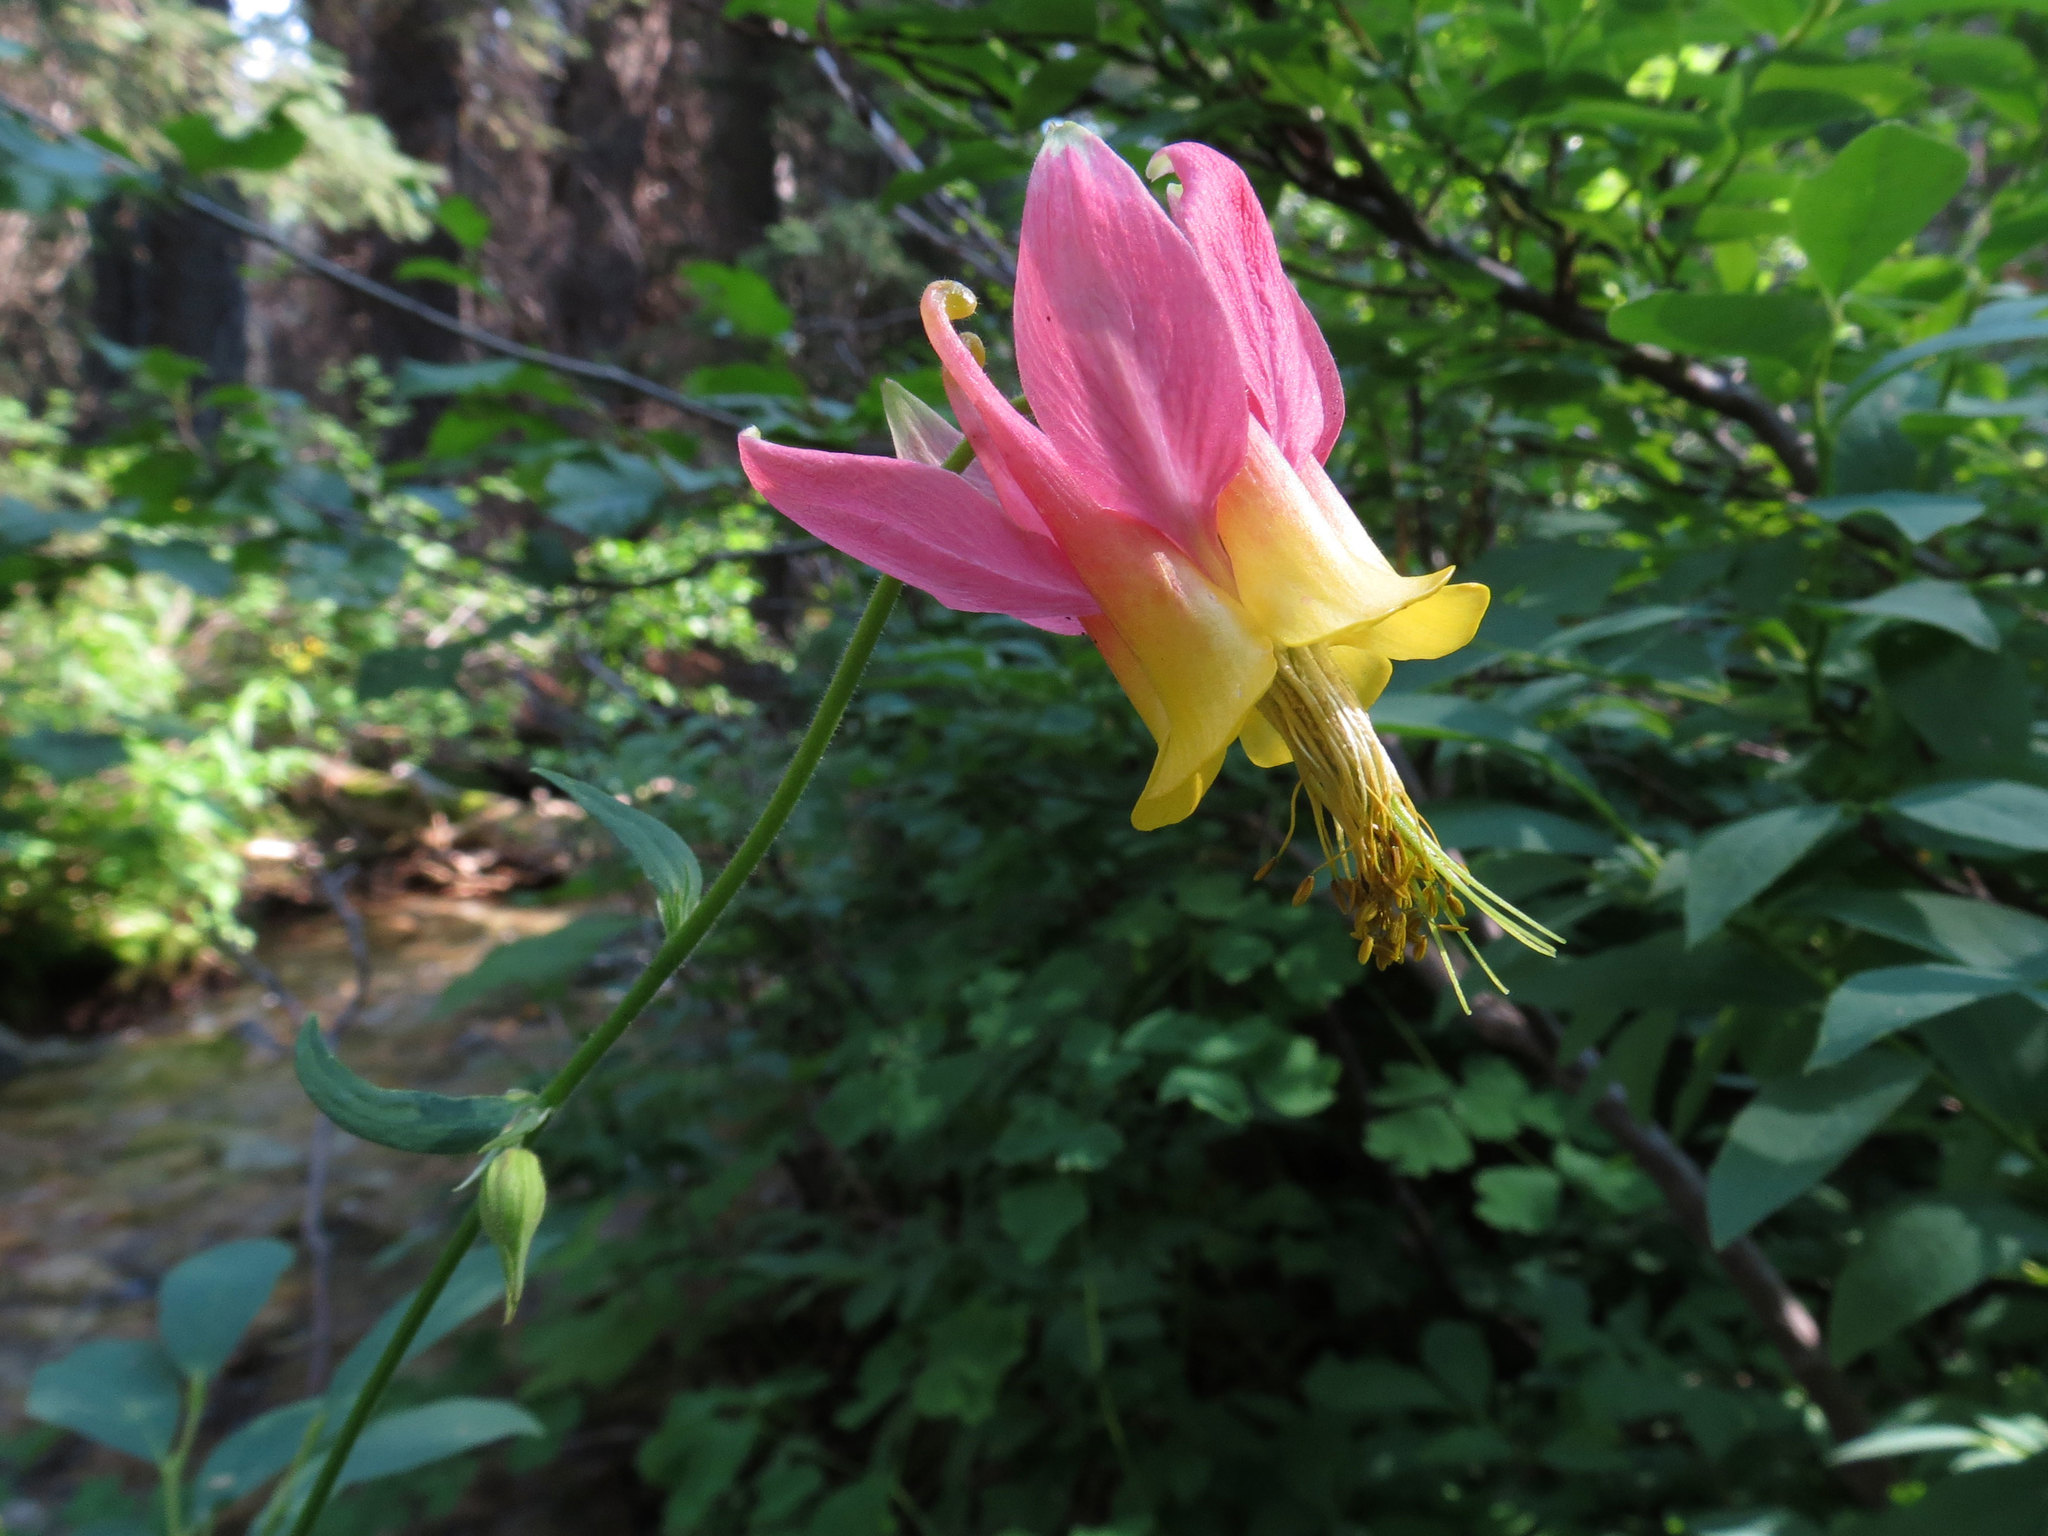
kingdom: Plantae
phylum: Tracheophyta
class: Magnoliopsida
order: Ranunculales
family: Ranunculaceae
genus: Aquilegia
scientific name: Aquilegia formosa
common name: Sitka columbine
